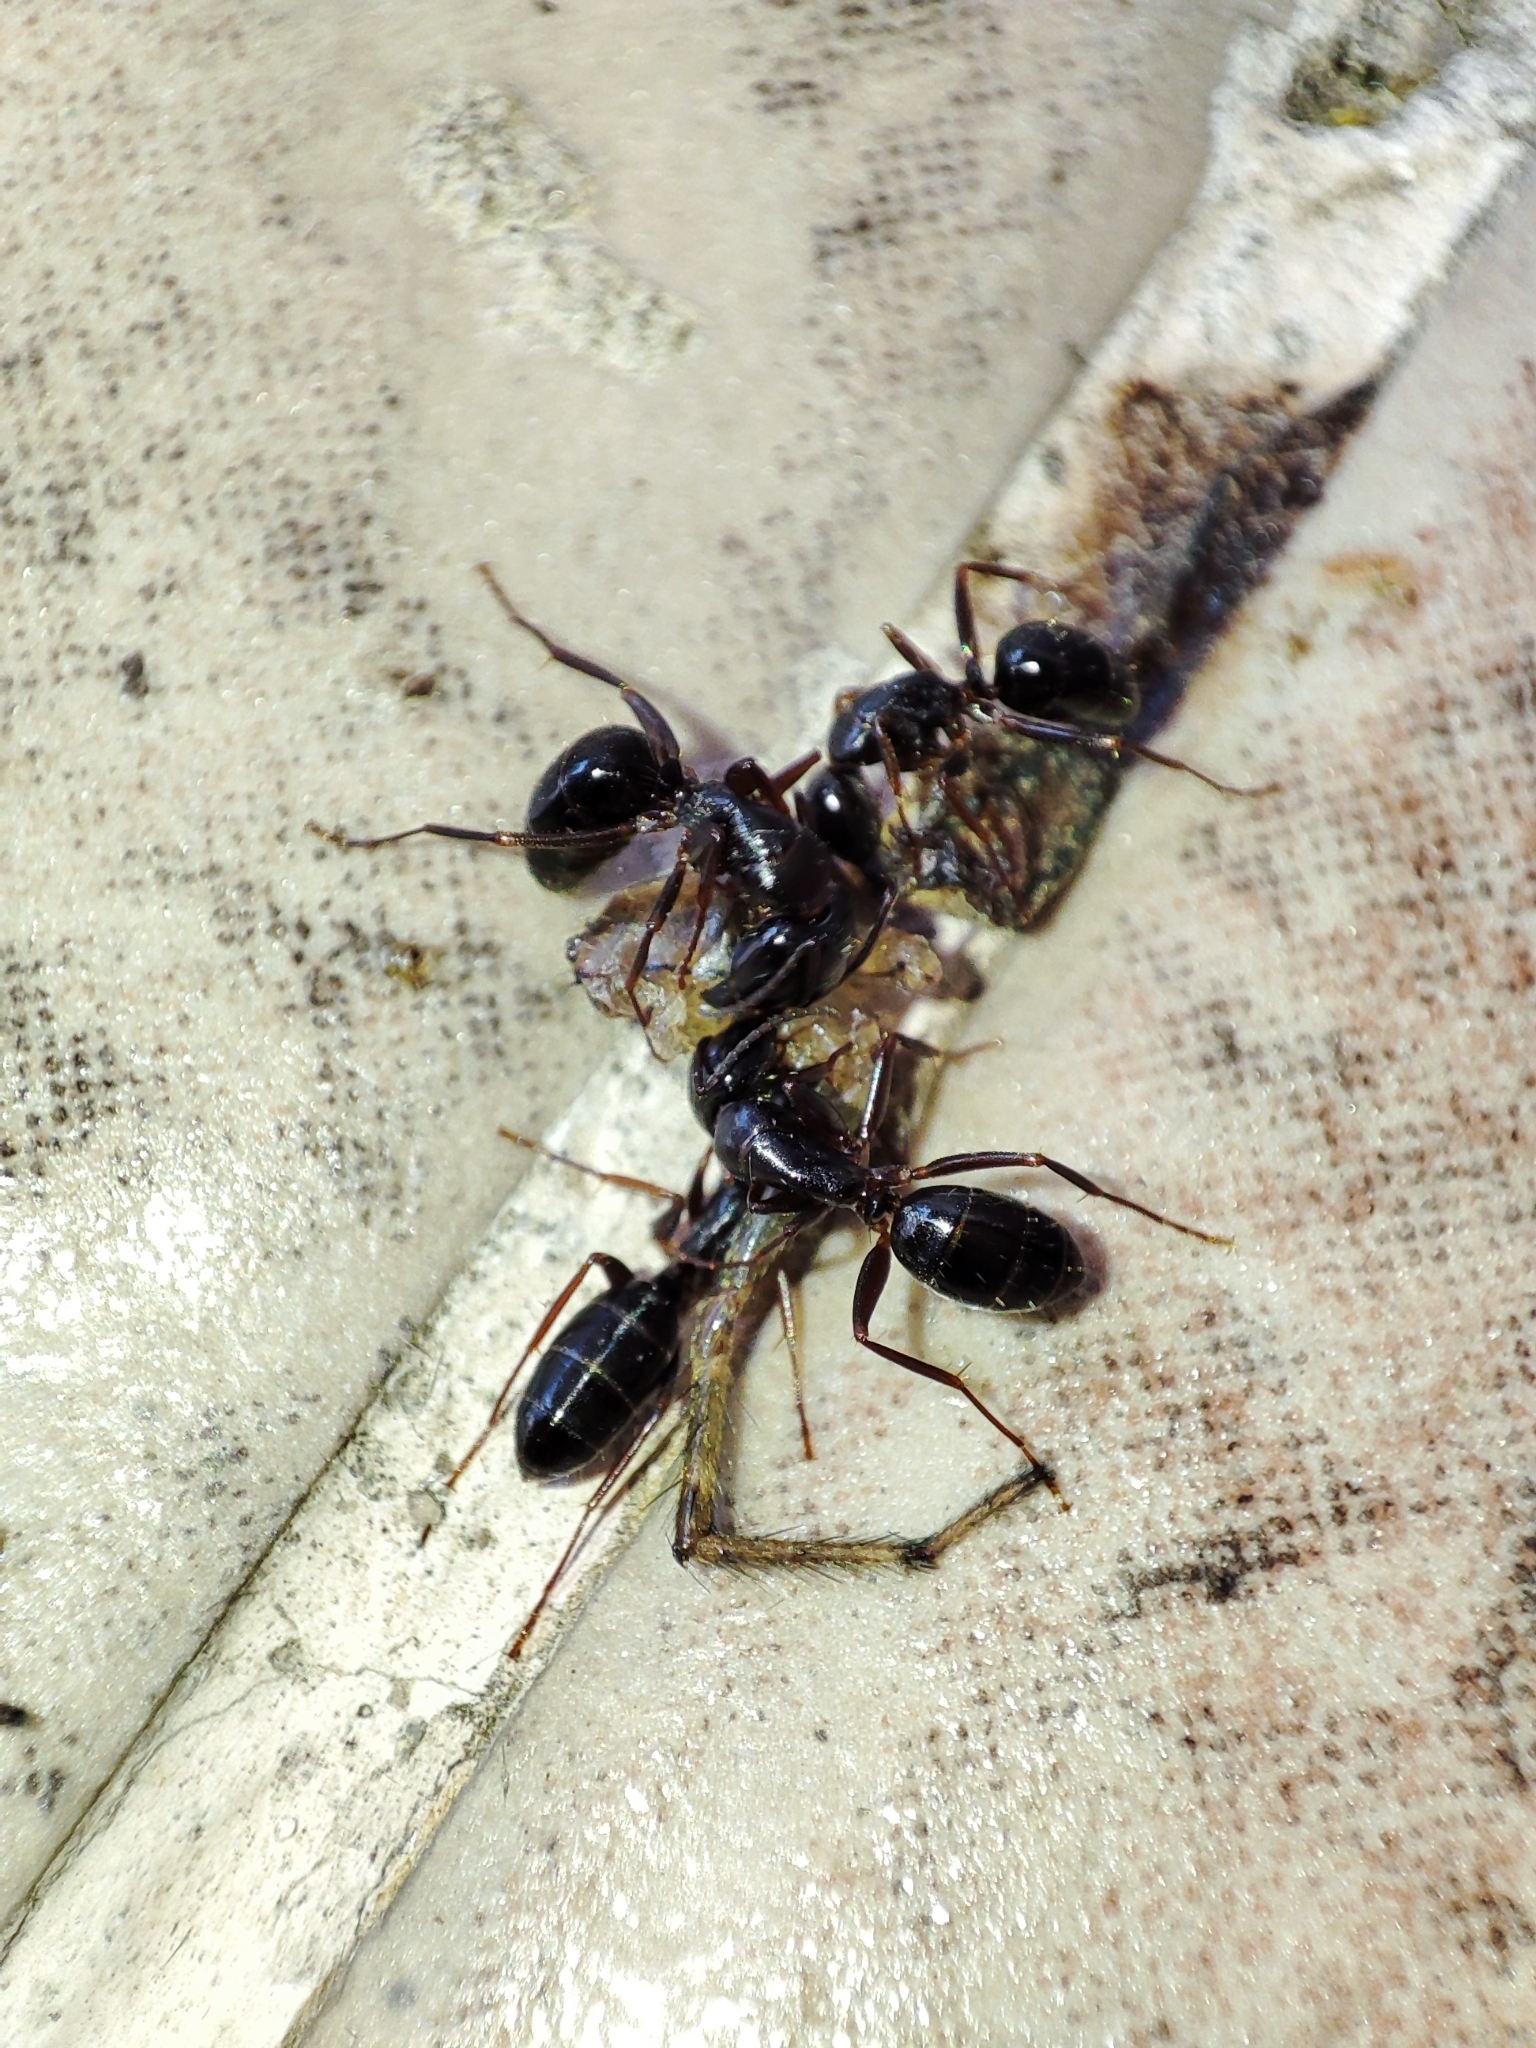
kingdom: Animalia
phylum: Arthropoda
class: Insecta
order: Hymenoptera
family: Formicidae
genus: Camponotus
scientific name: Camponotus fallax
